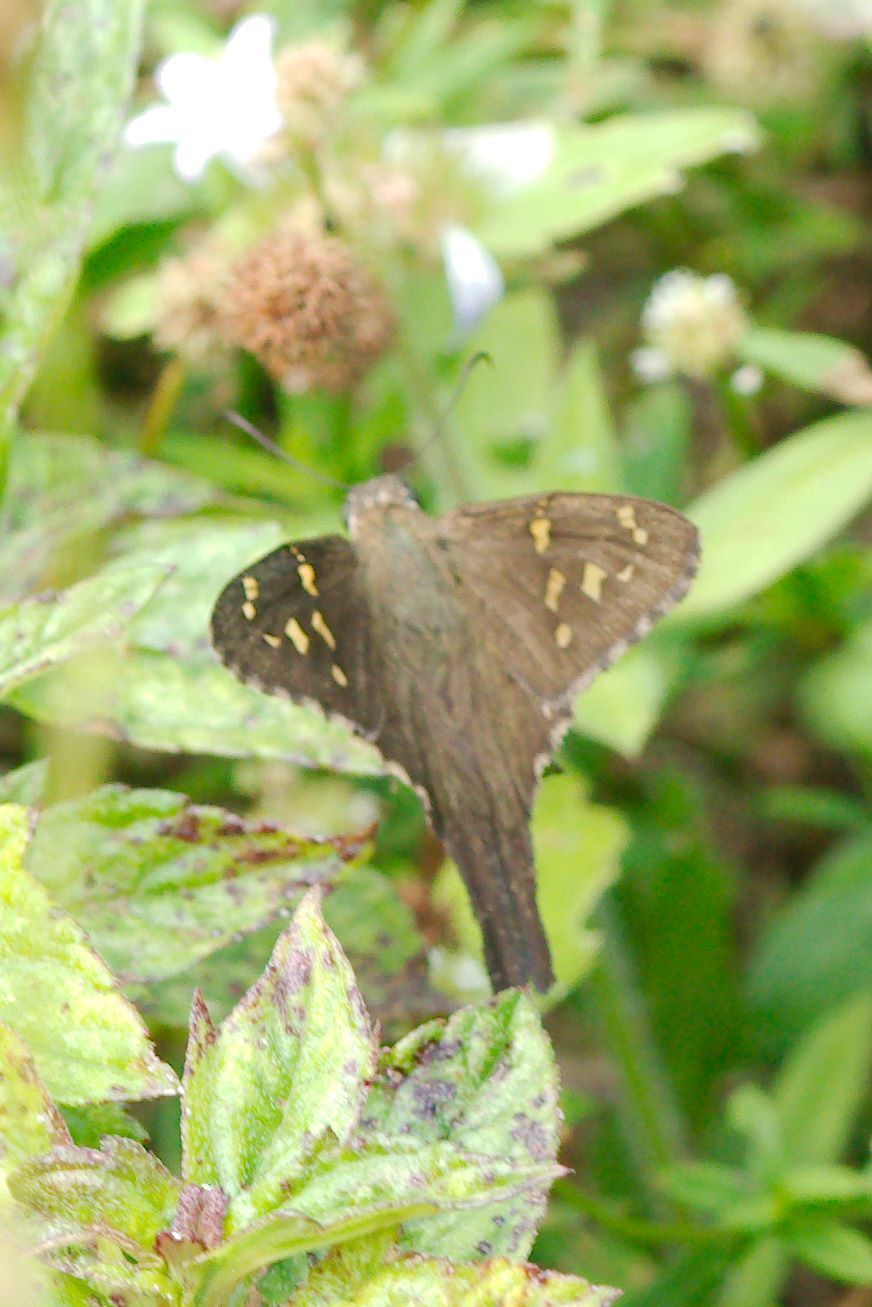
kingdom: Animalia
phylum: Arthropoda
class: Insecta
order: Lepidoptera
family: Hesperiidae
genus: Thorybes
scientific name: Thorybes
